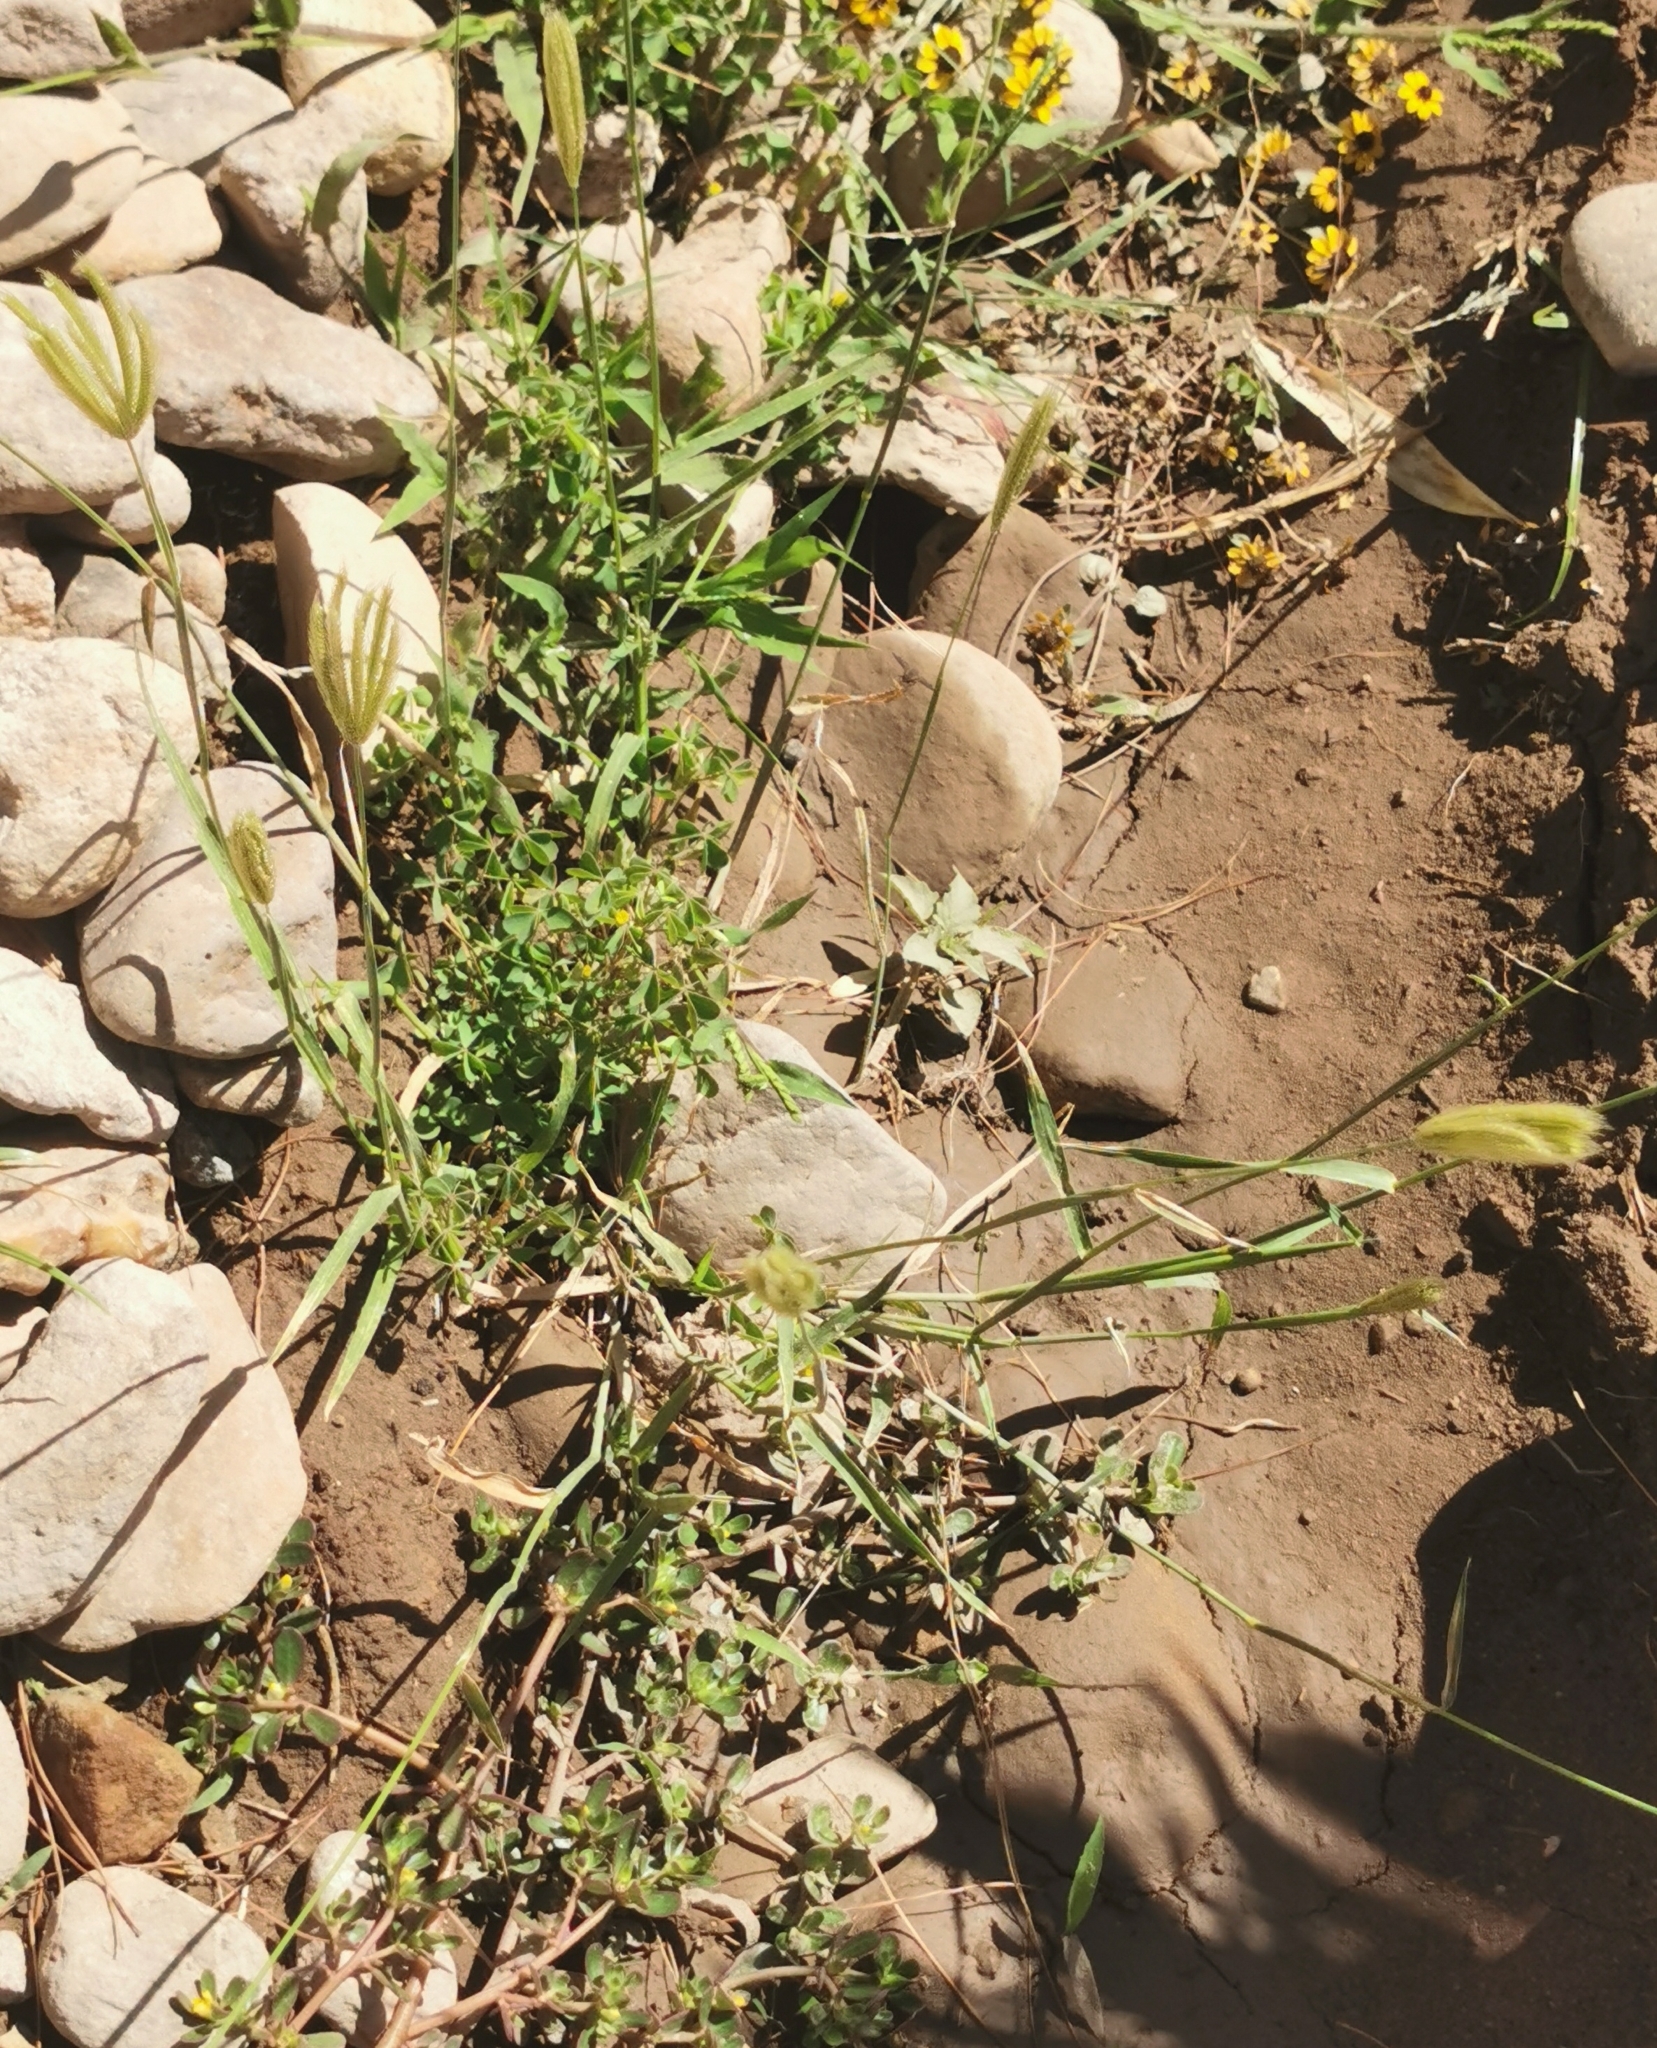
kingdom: Plantae
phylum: Tracheophyta
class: Liliopsida
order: Poales
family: Poaceae
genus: Chloris
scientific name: Chloris virgata
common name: Feathery rhodes-grass
